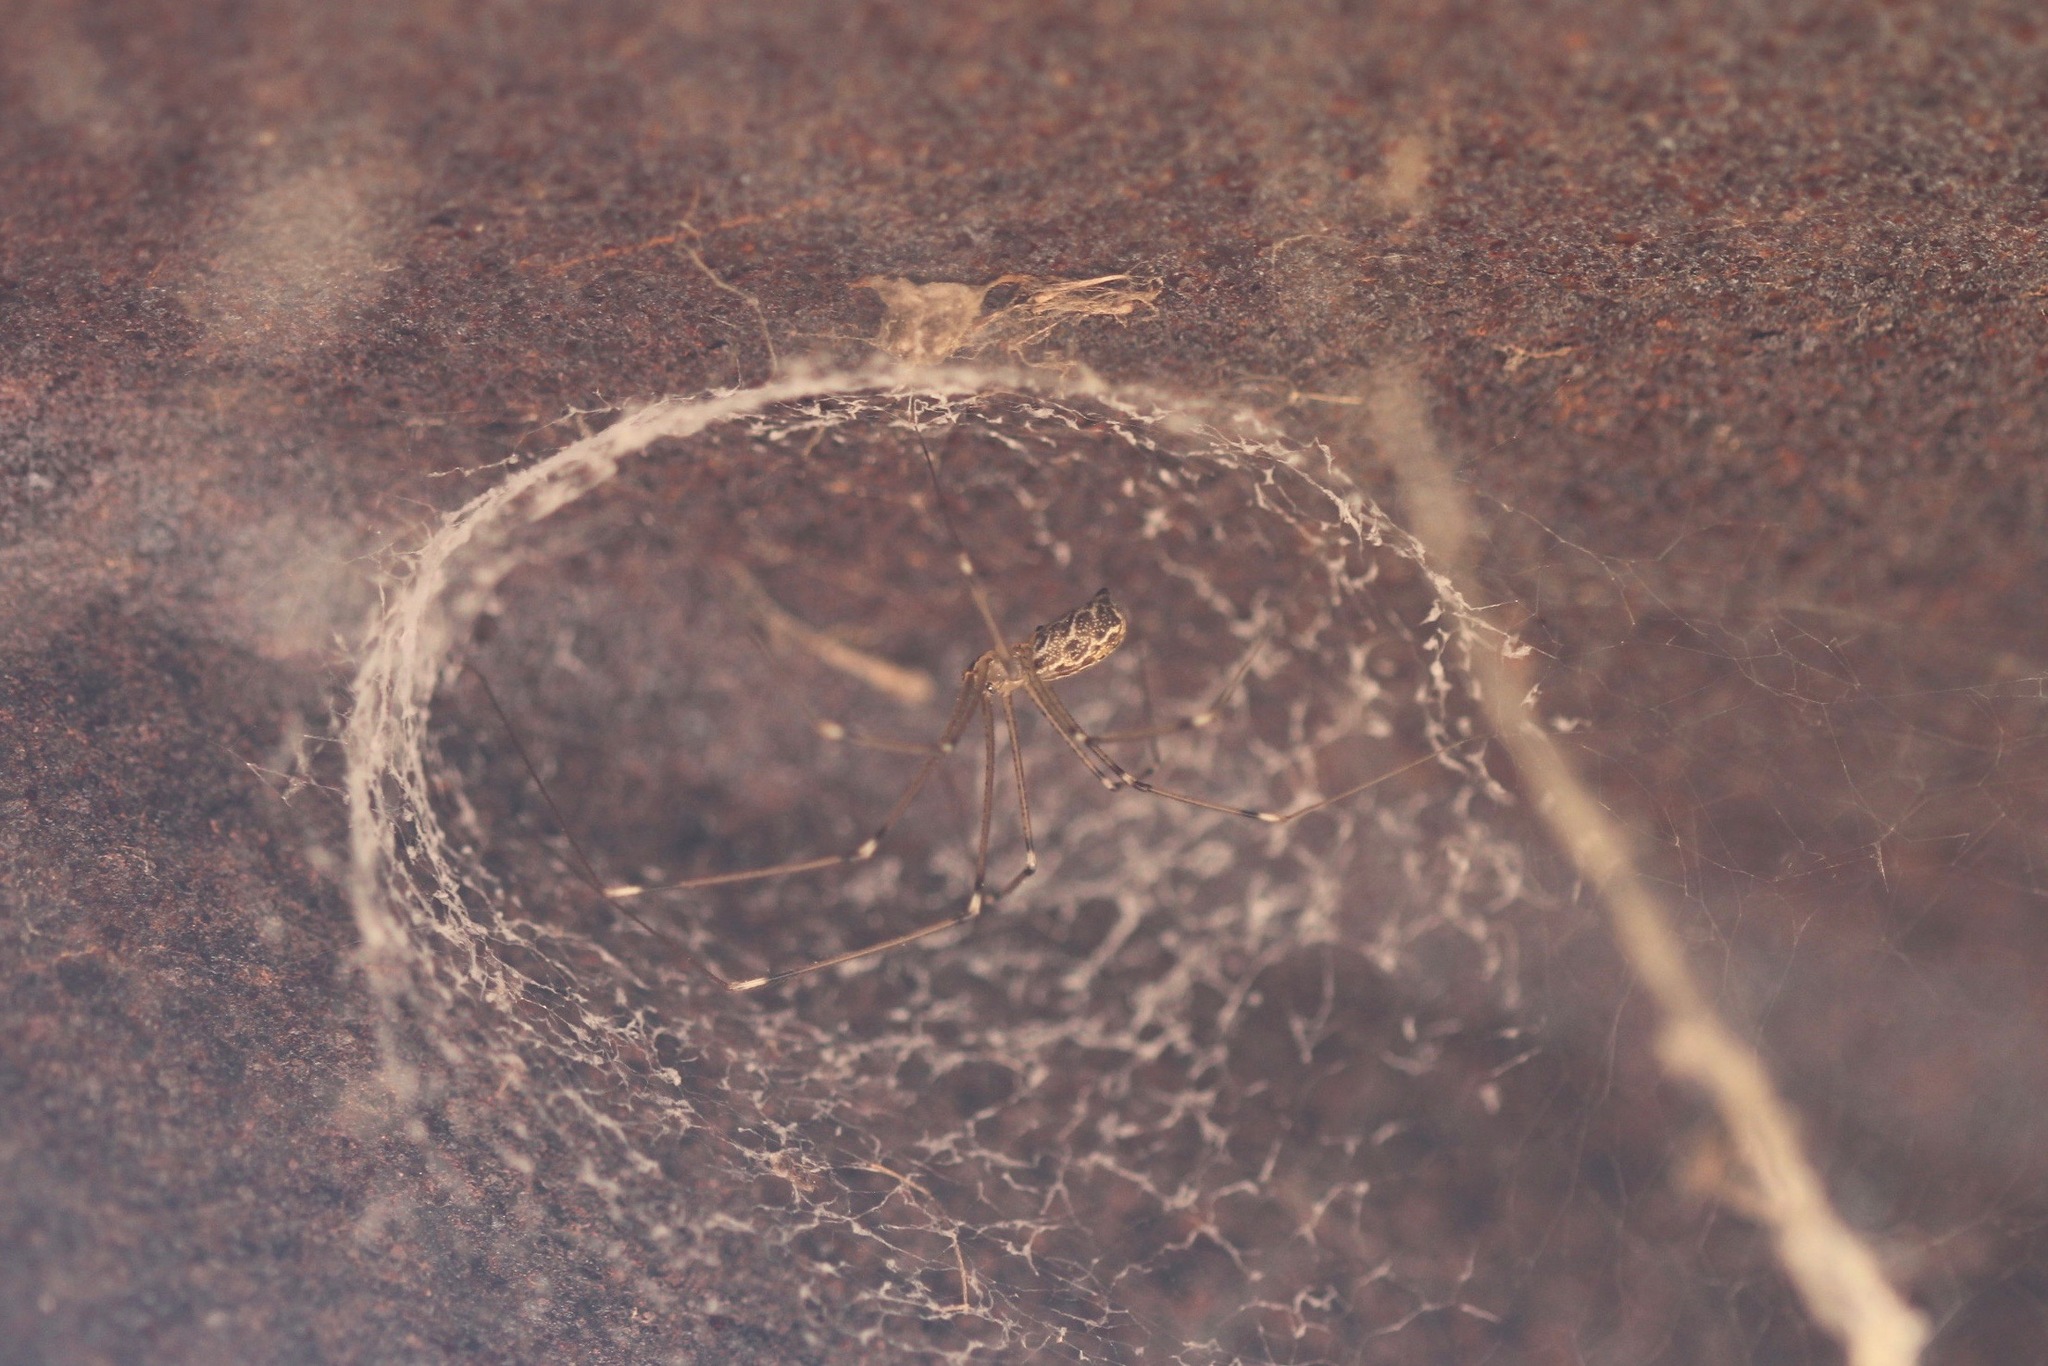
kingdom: Animalia
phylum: Arthropoda
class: Arachnida
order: Araneae
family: Pholcidae
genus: Holocnemus
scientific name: Holocnemus pluchei
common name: Marbled cellar spider
